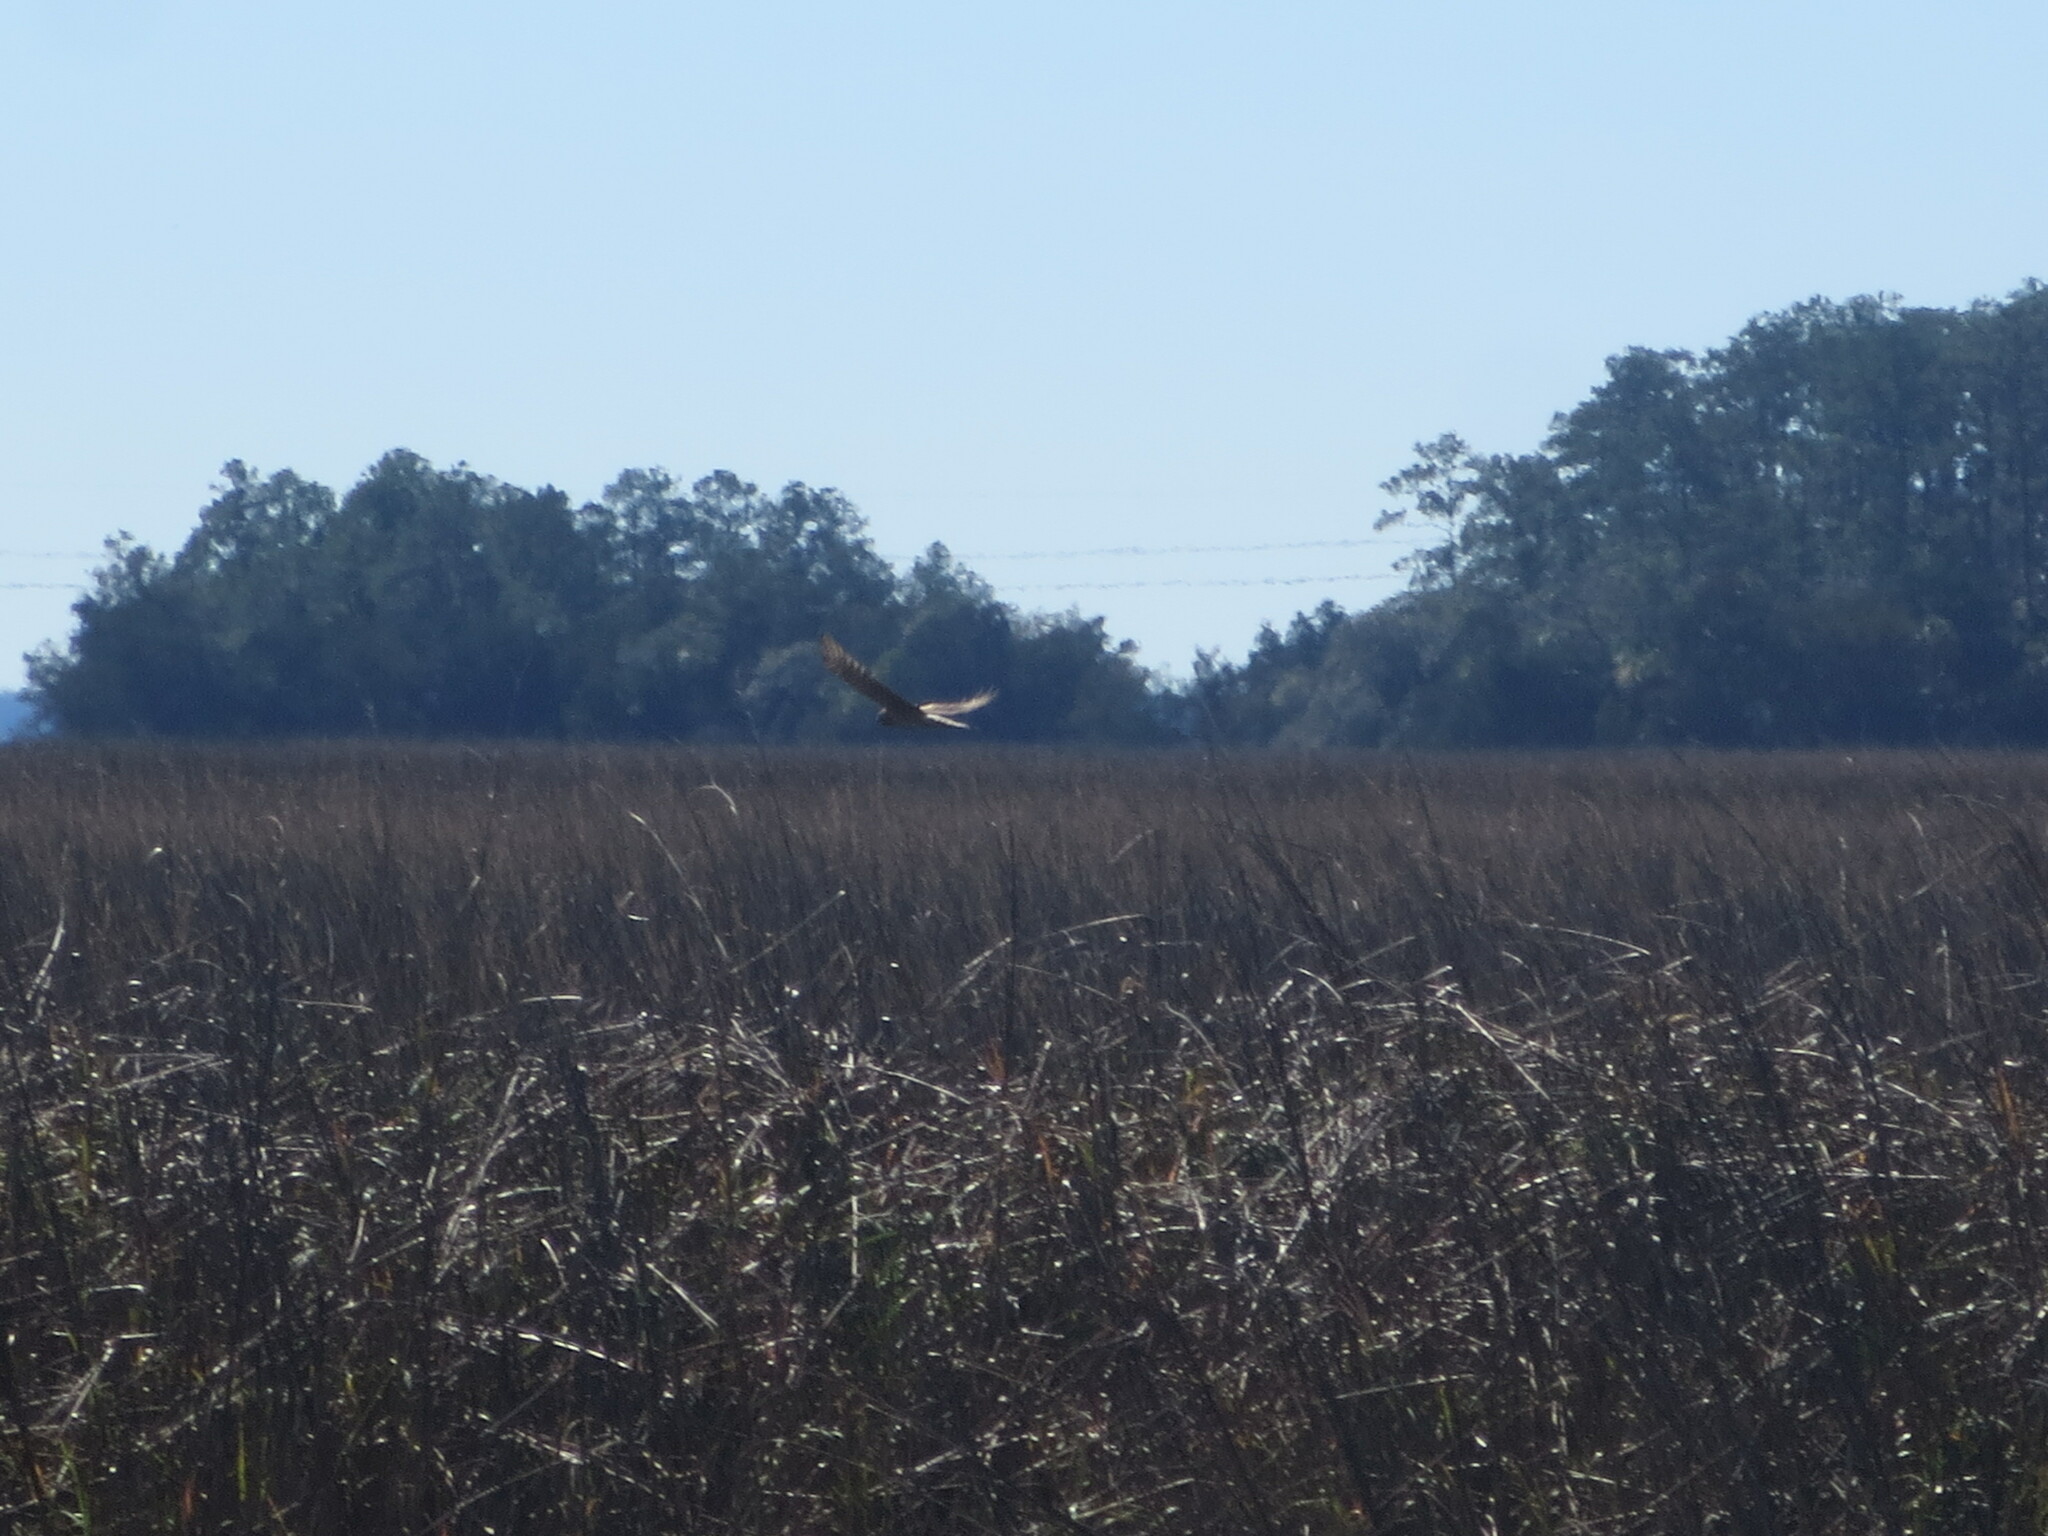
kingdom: Animalia
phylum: Chordata
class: Aves
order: Accipitriformes
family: Accipitridae
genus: Circus
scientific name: Circus cyaneus
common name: Hen harrier
